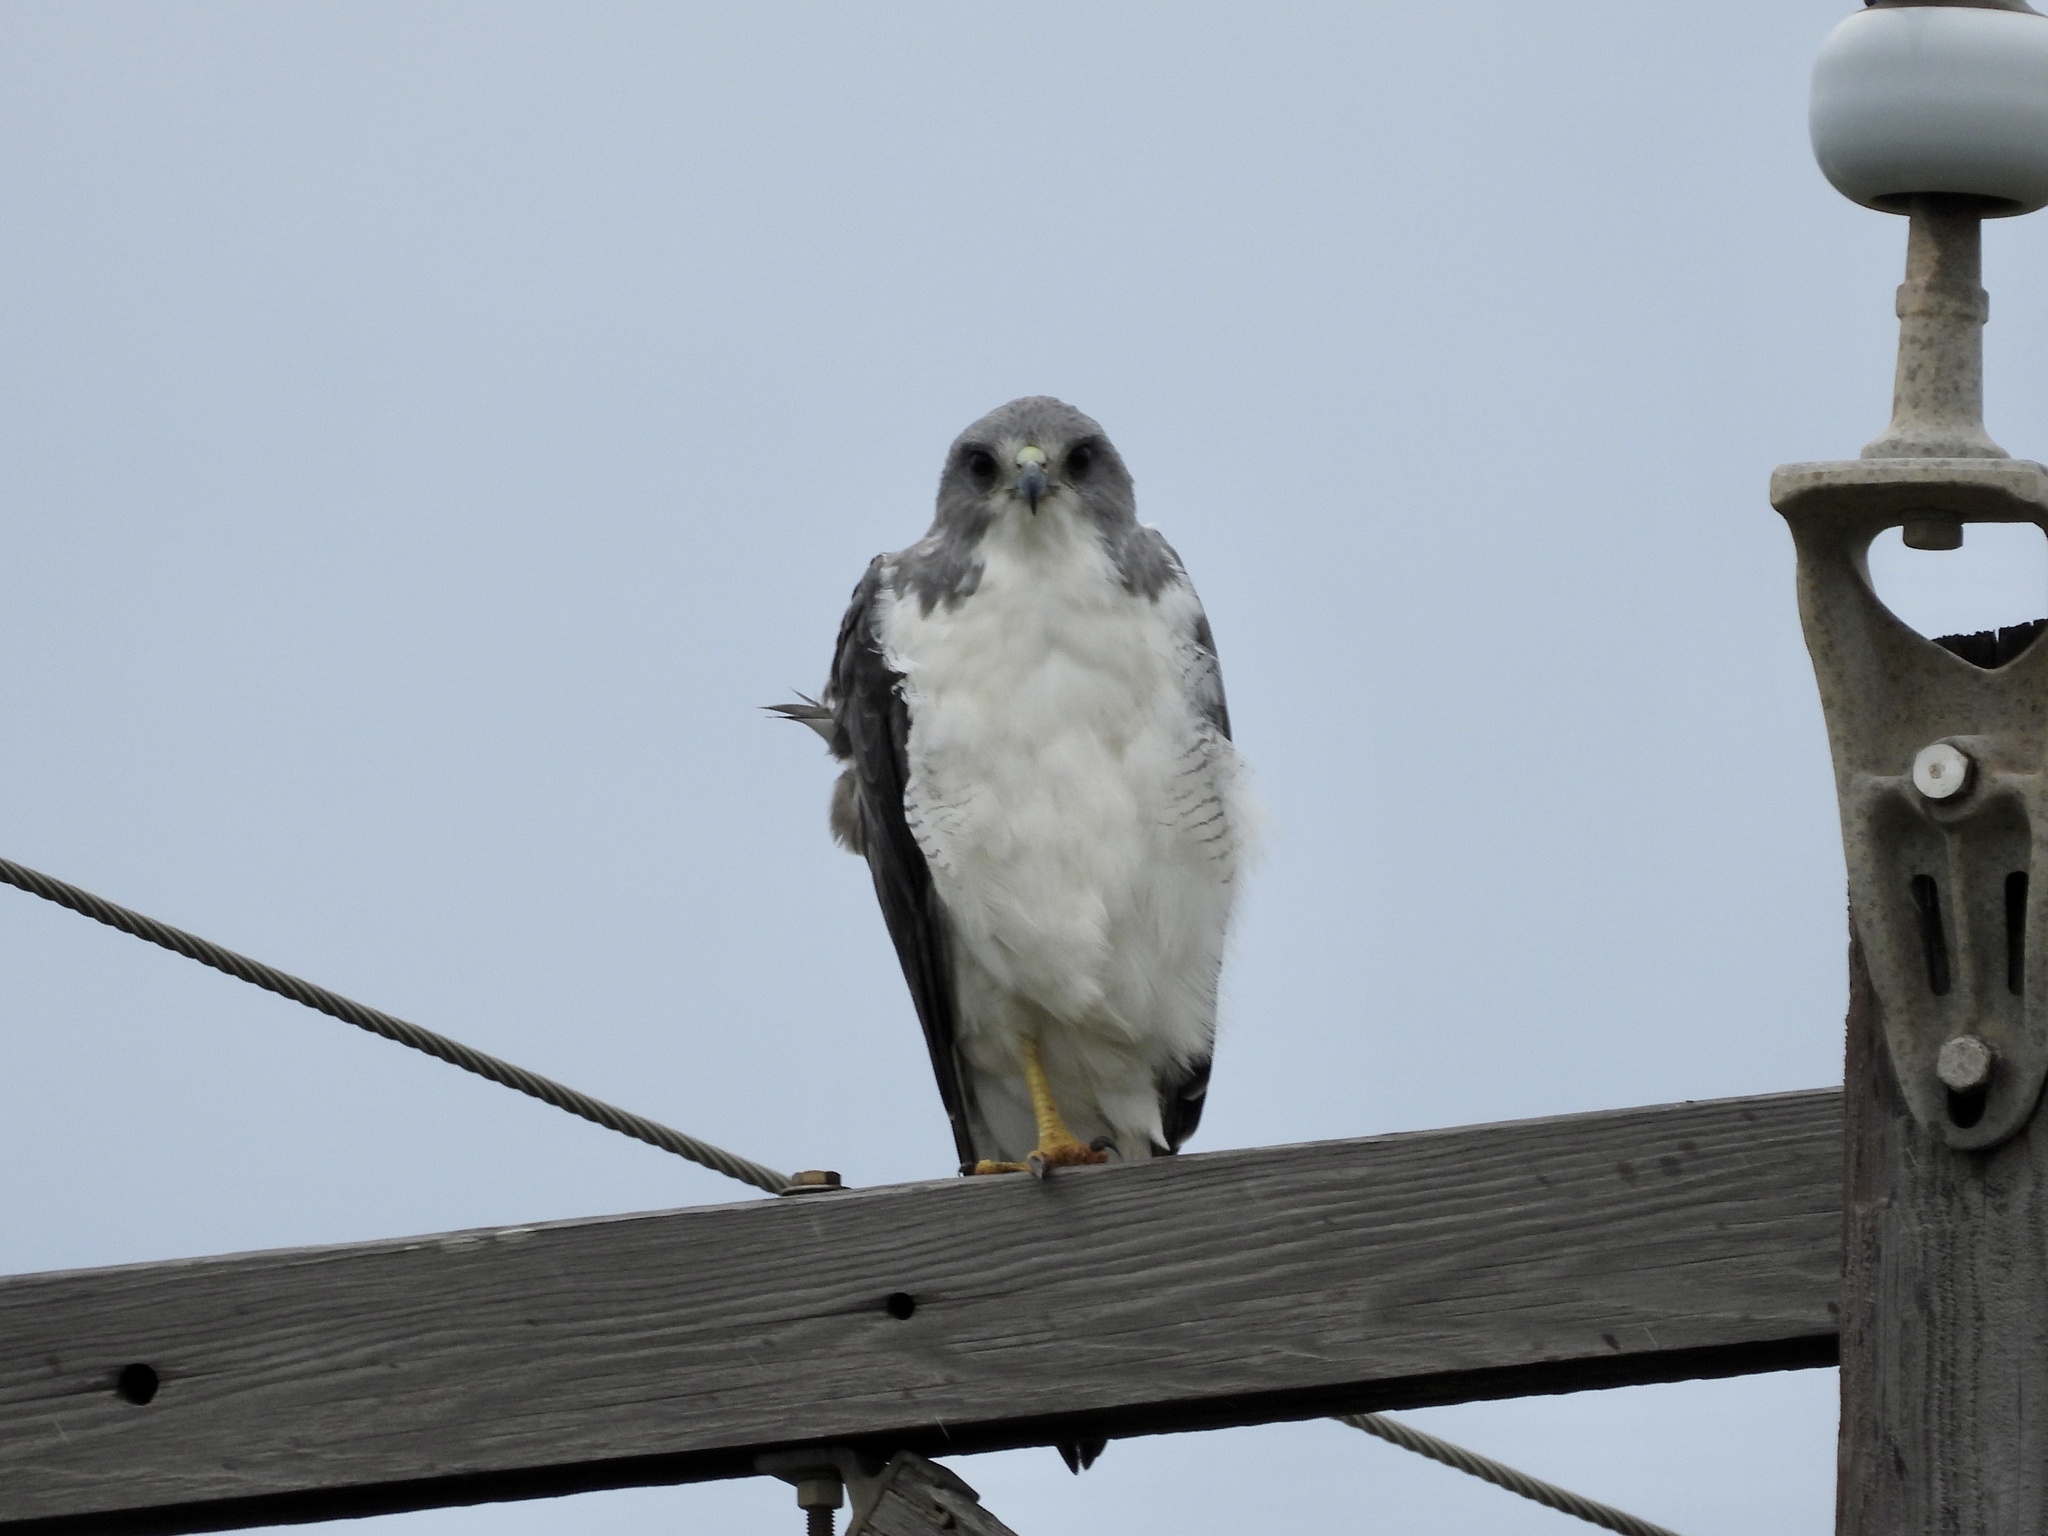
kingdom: Animalia
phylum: Chordata
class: Aves
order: Accipitriformes
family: Accipitridae
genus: Buteo
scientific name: Buteo albicaudatus
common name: White-tailed hawk
